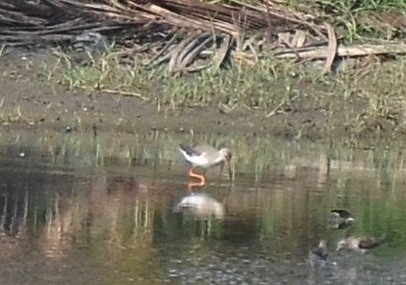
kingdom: Animalia
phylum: Chordata
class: Aves
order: Charadriiformes
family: Scolopacidae
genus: Tringa
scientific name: Tringa totanus
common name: Common redshank
